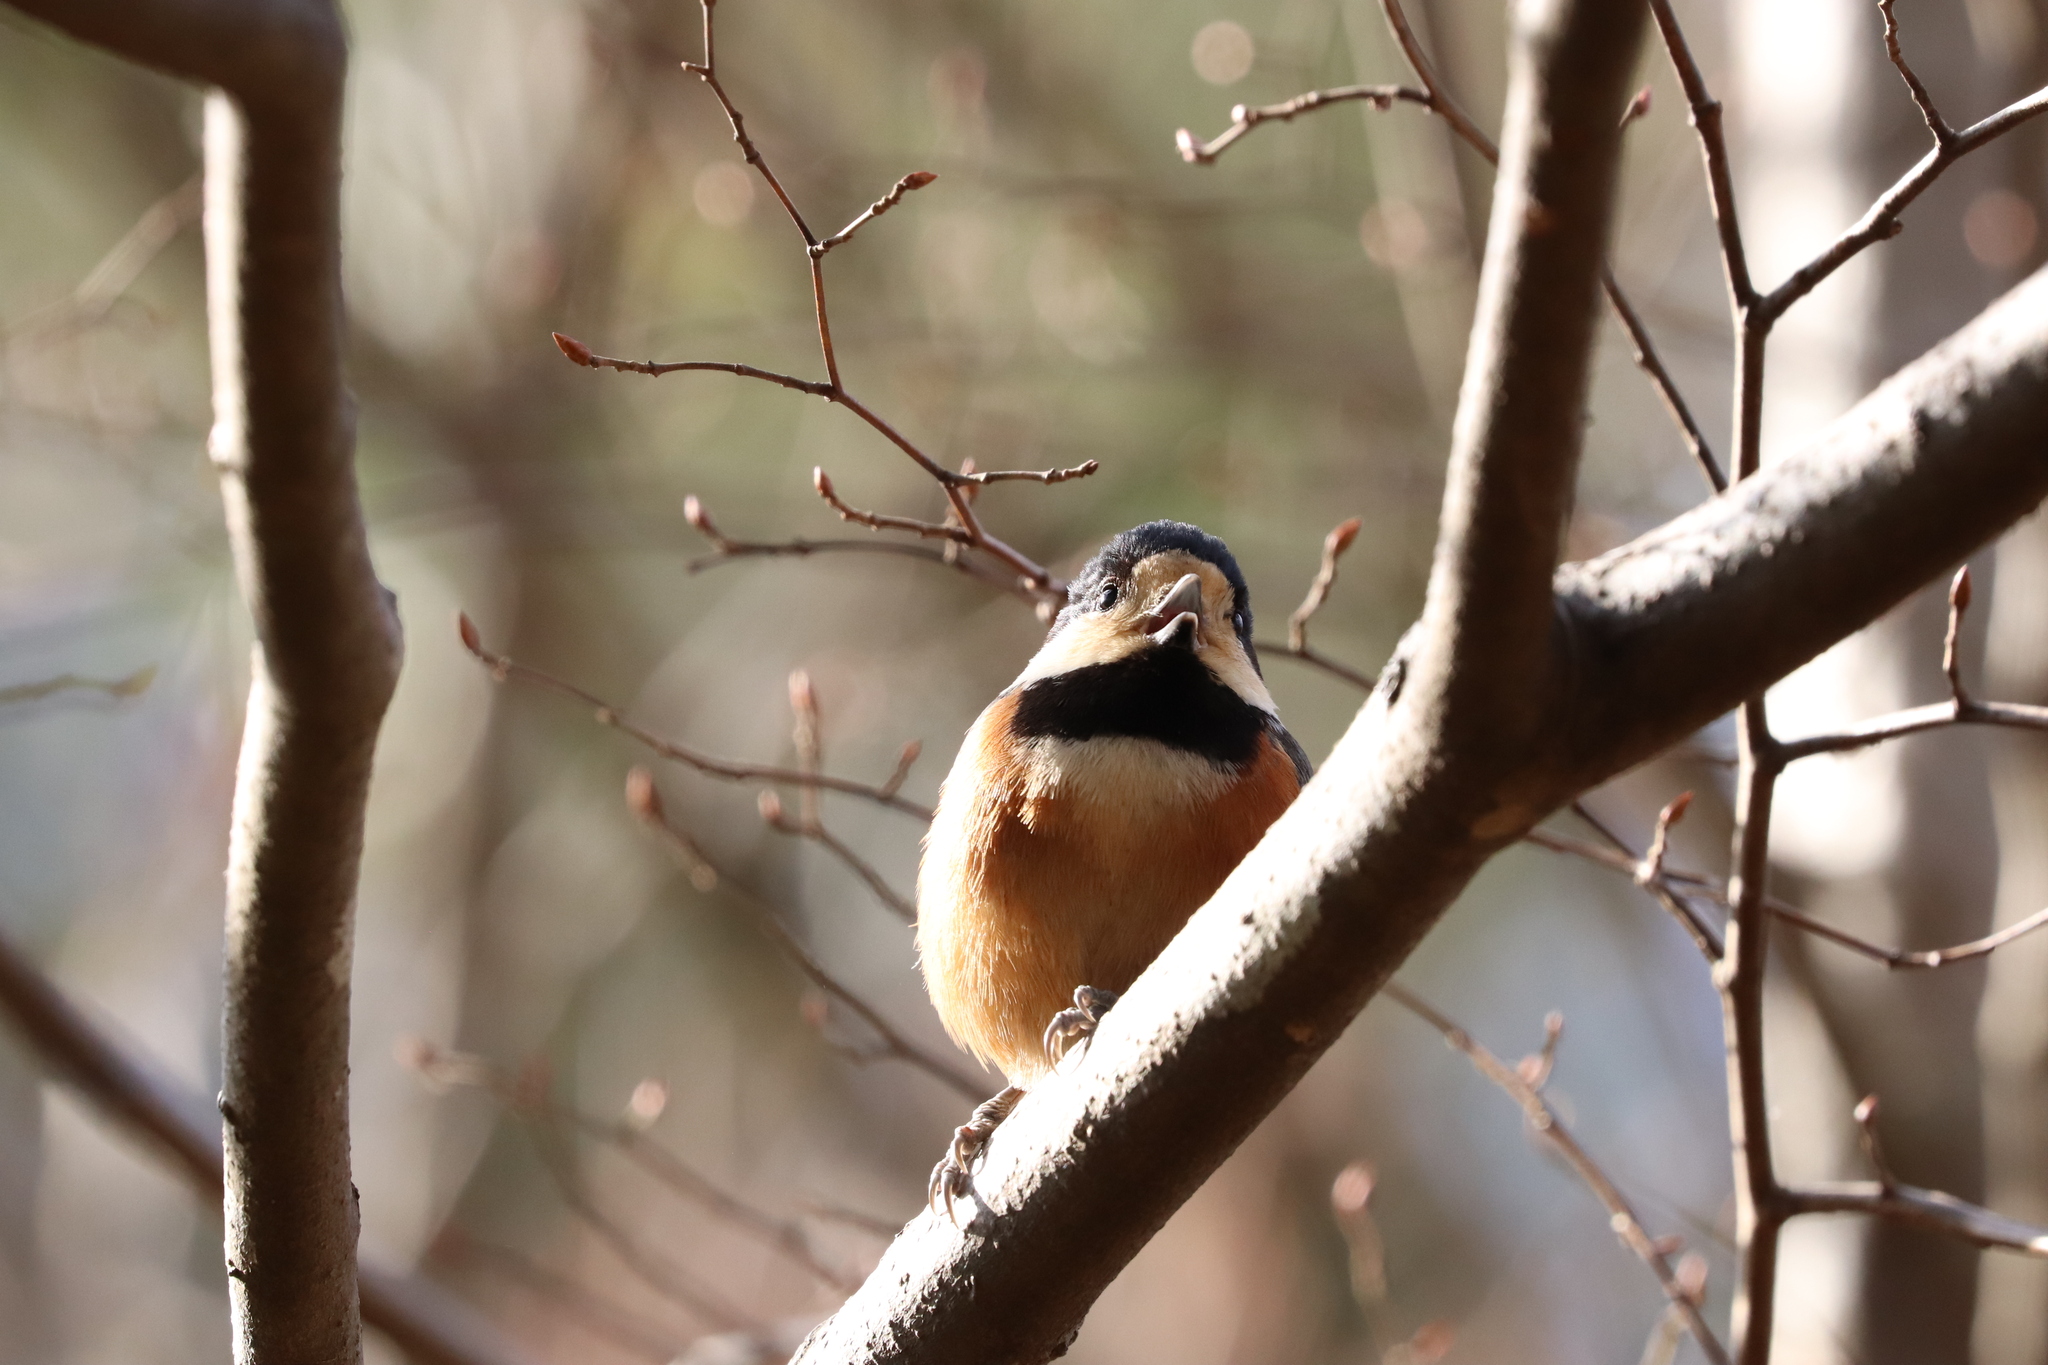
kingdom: Animalia
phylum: Chordata
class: Aves
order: Passeriformes
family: Paridae
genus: Poecile
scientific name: Poecile varius
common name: Varied tit
